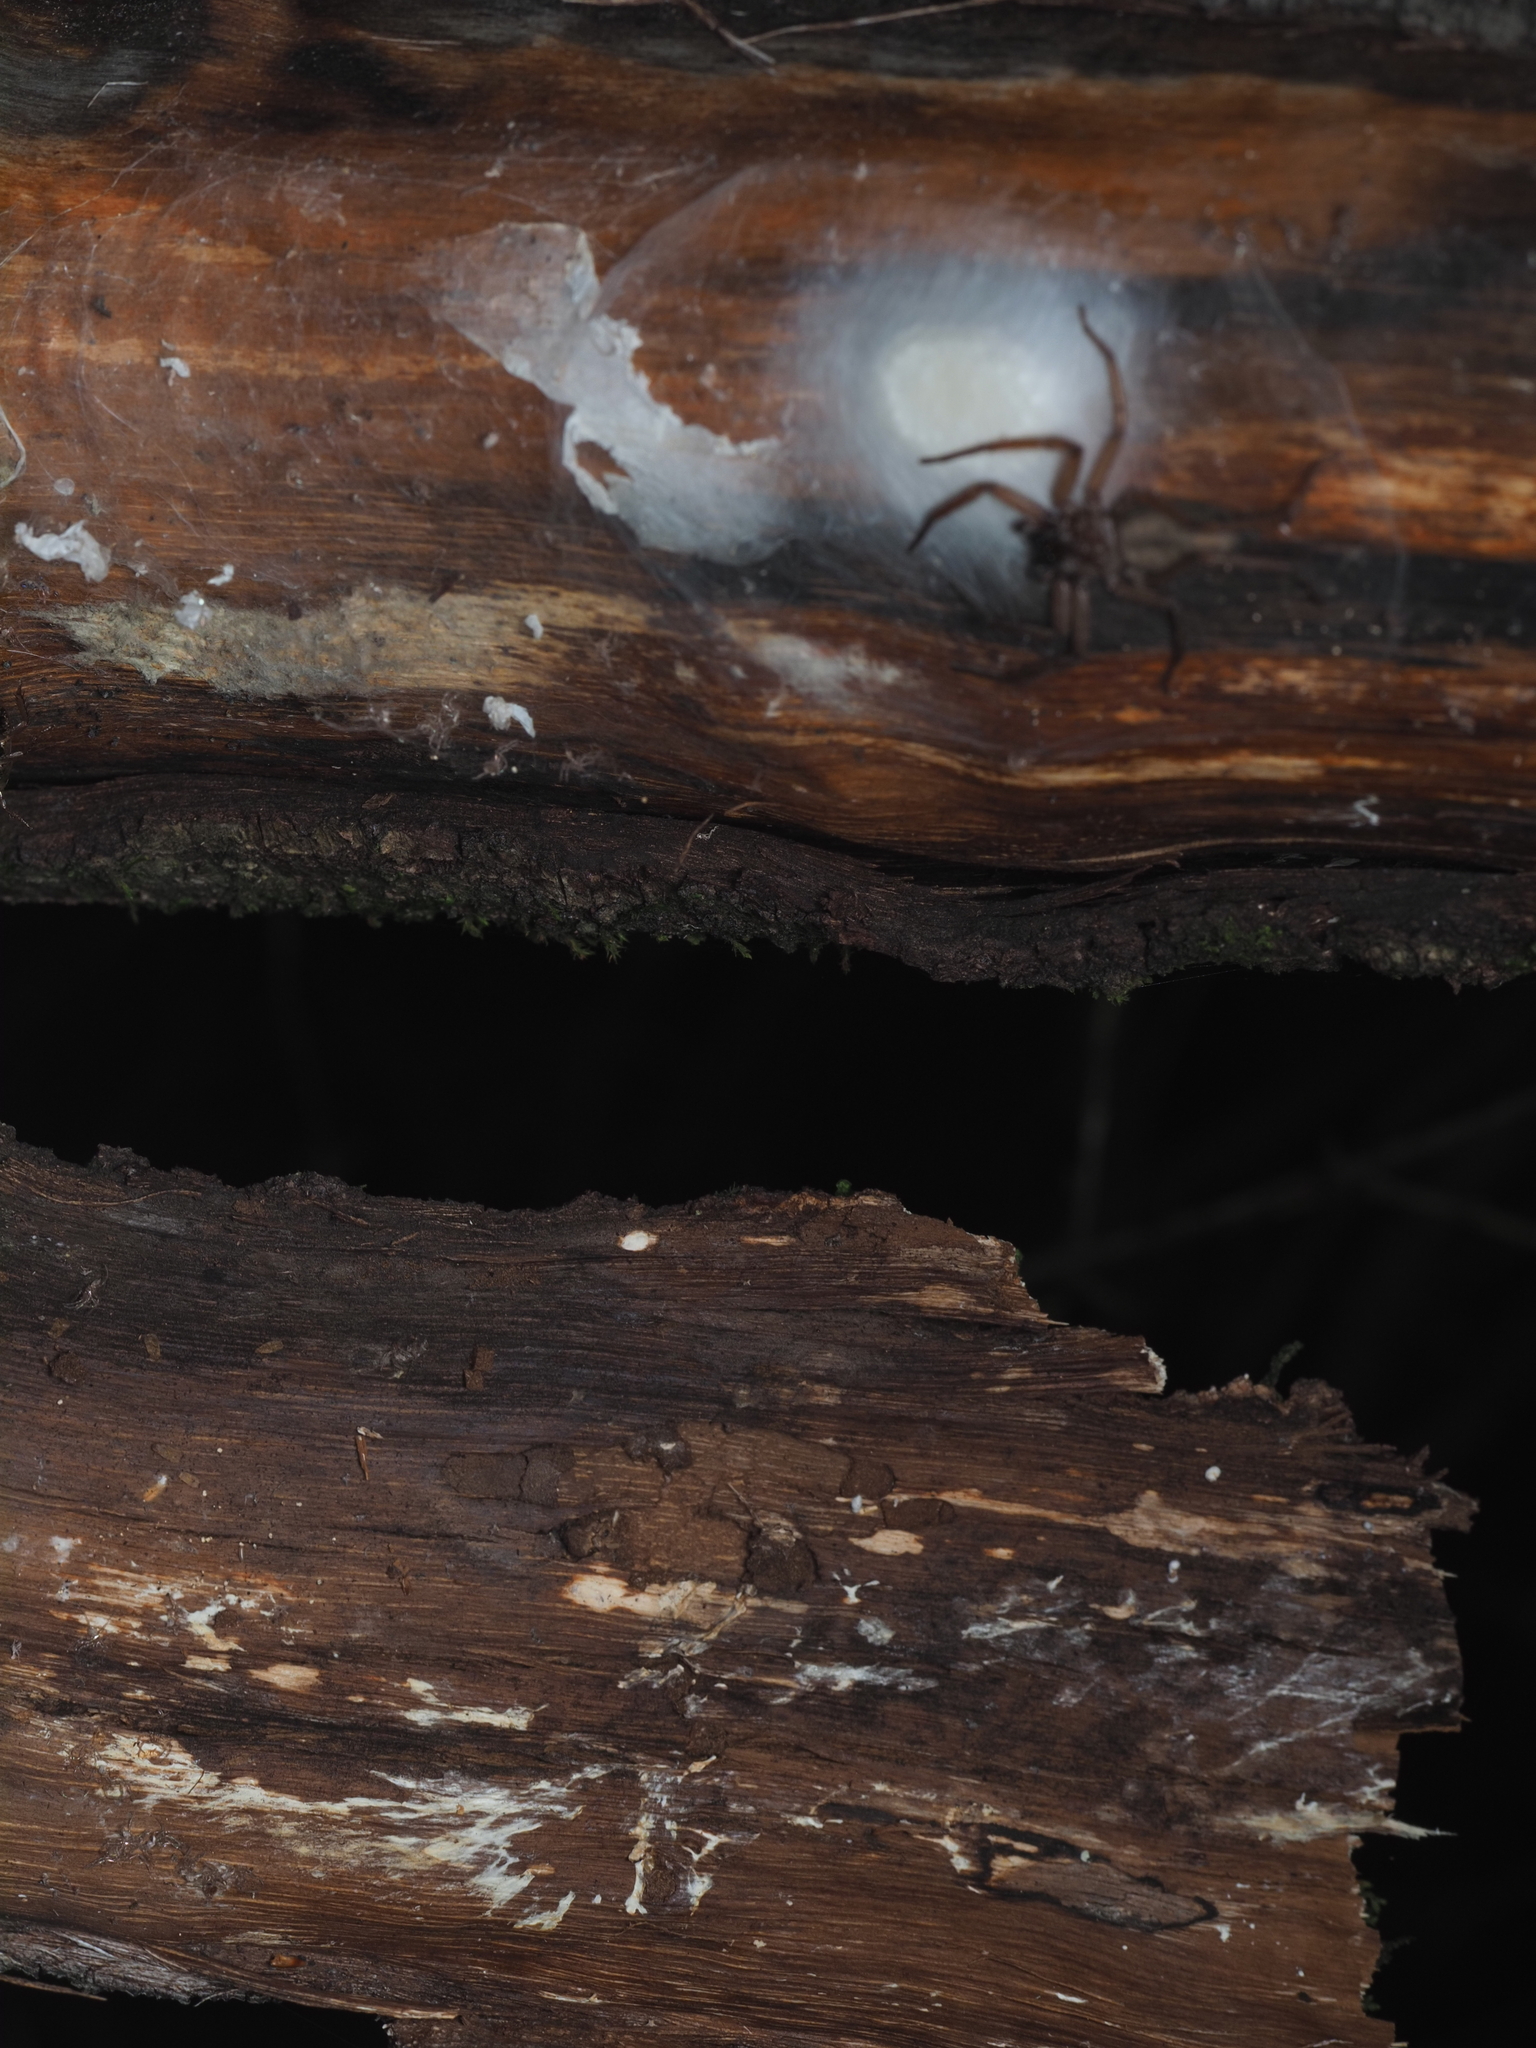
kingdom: Animalia
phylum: Arthropoda
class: Arachnida
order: Araneae
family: Trochanteriidae
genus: Hemicloea
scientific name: Hemicloea rogenhoferi
